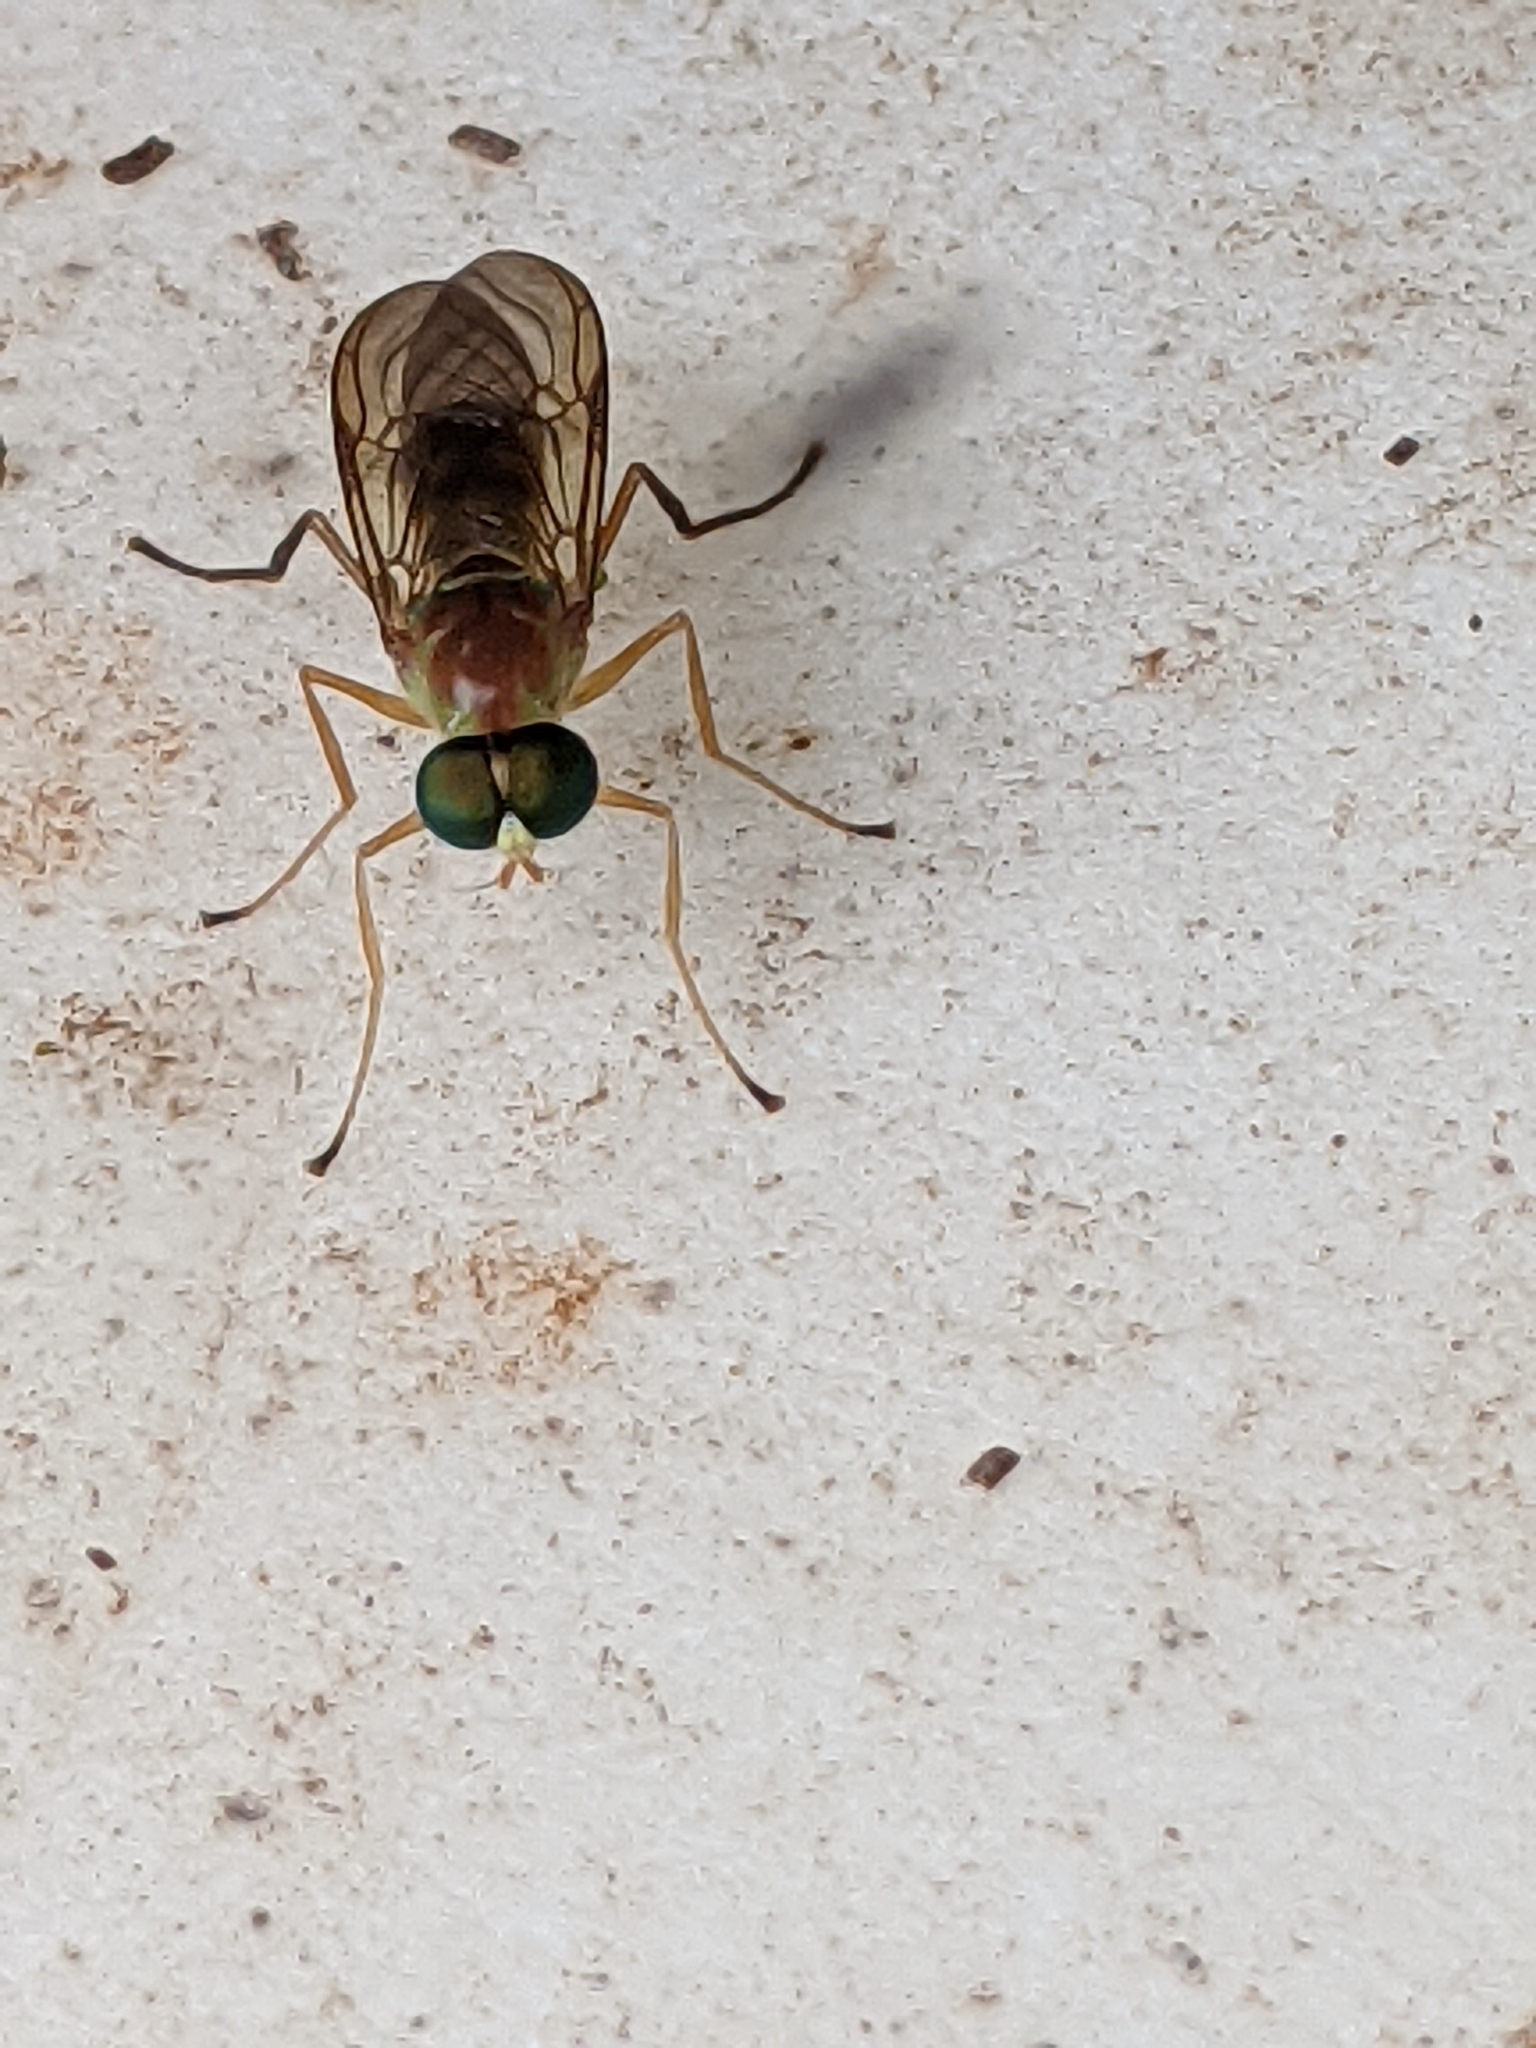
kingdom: Animalia
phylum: Arthropoda
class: Insecta
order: Diptera
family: Stratiomyidae
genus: Ptecticus
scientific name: Ptecticus trivittatus
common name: Compost fly
